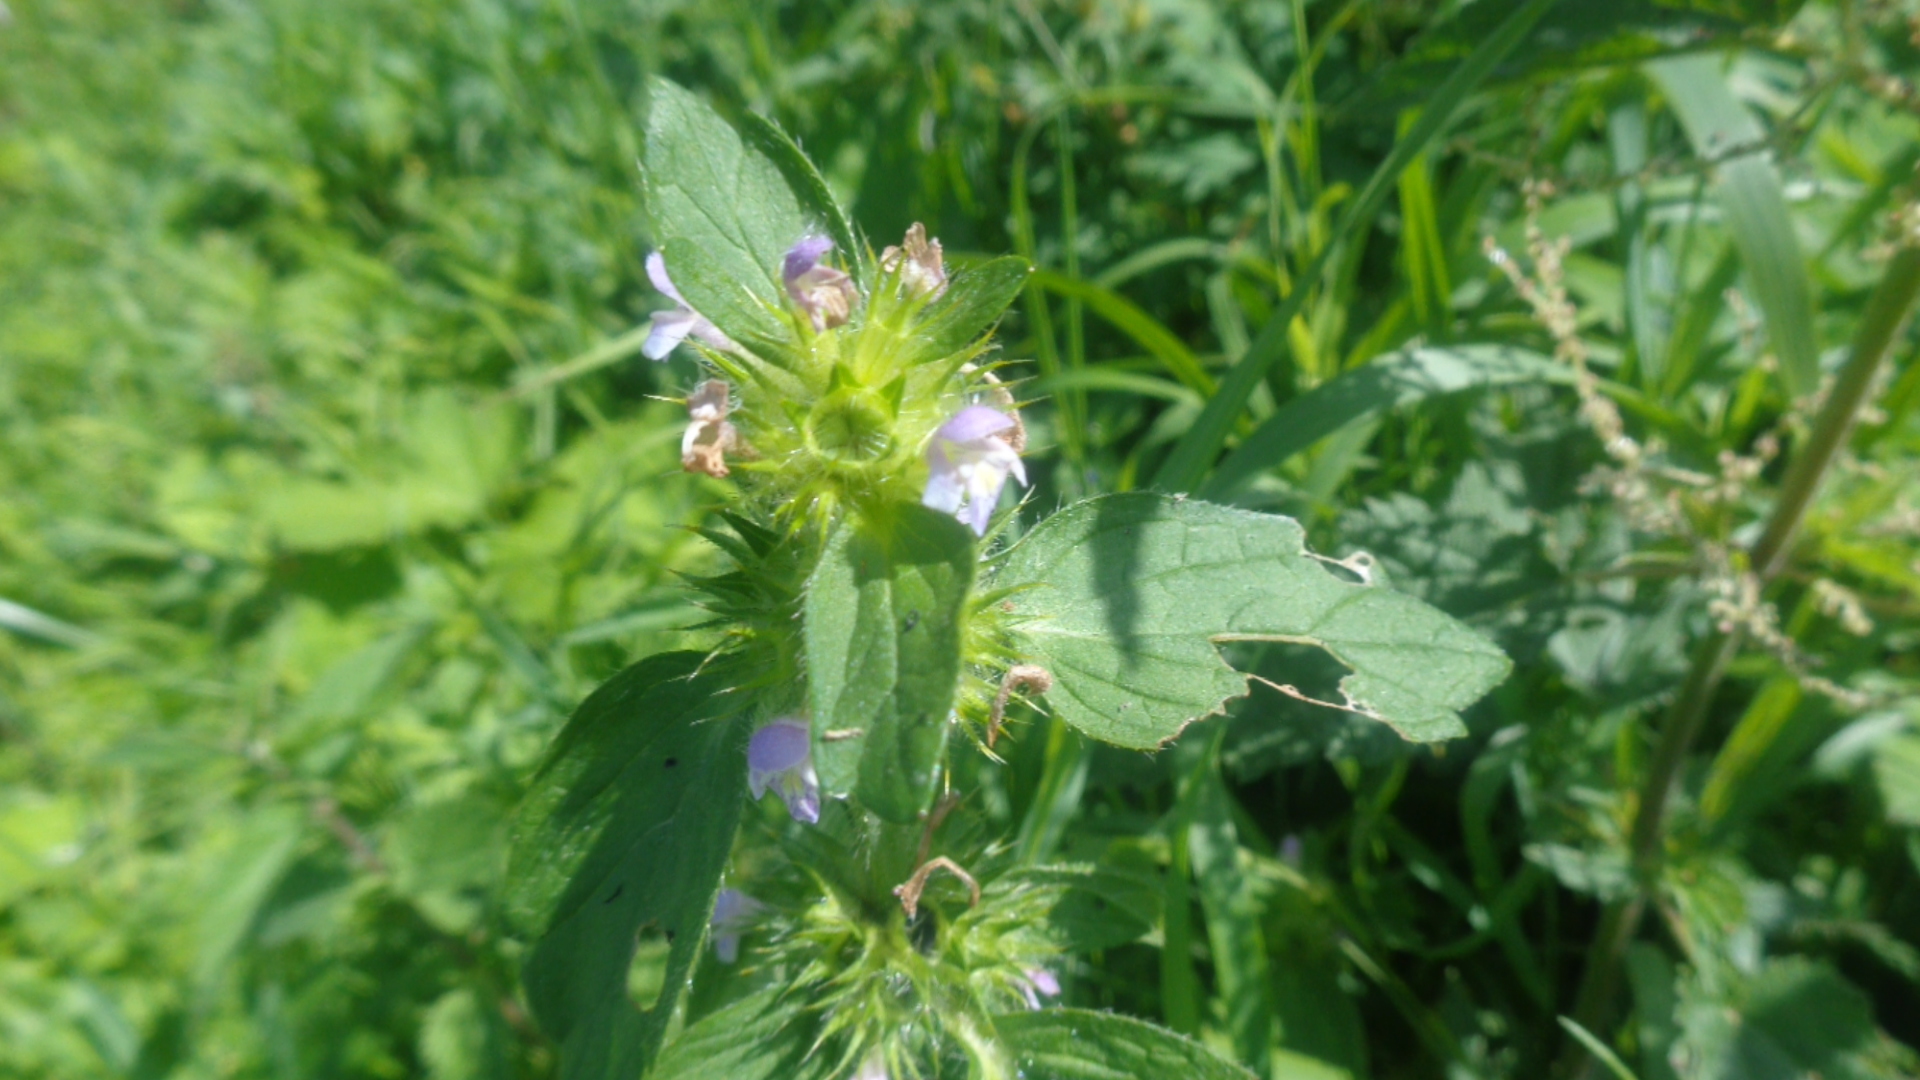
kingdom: Plantae
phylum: Tracheophyta
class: Magnoliopsida
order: Lamiales
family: Lamiaceae
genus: Galeopsis
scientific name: Galeopsis bifida
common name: Bifid hemp-nettle
